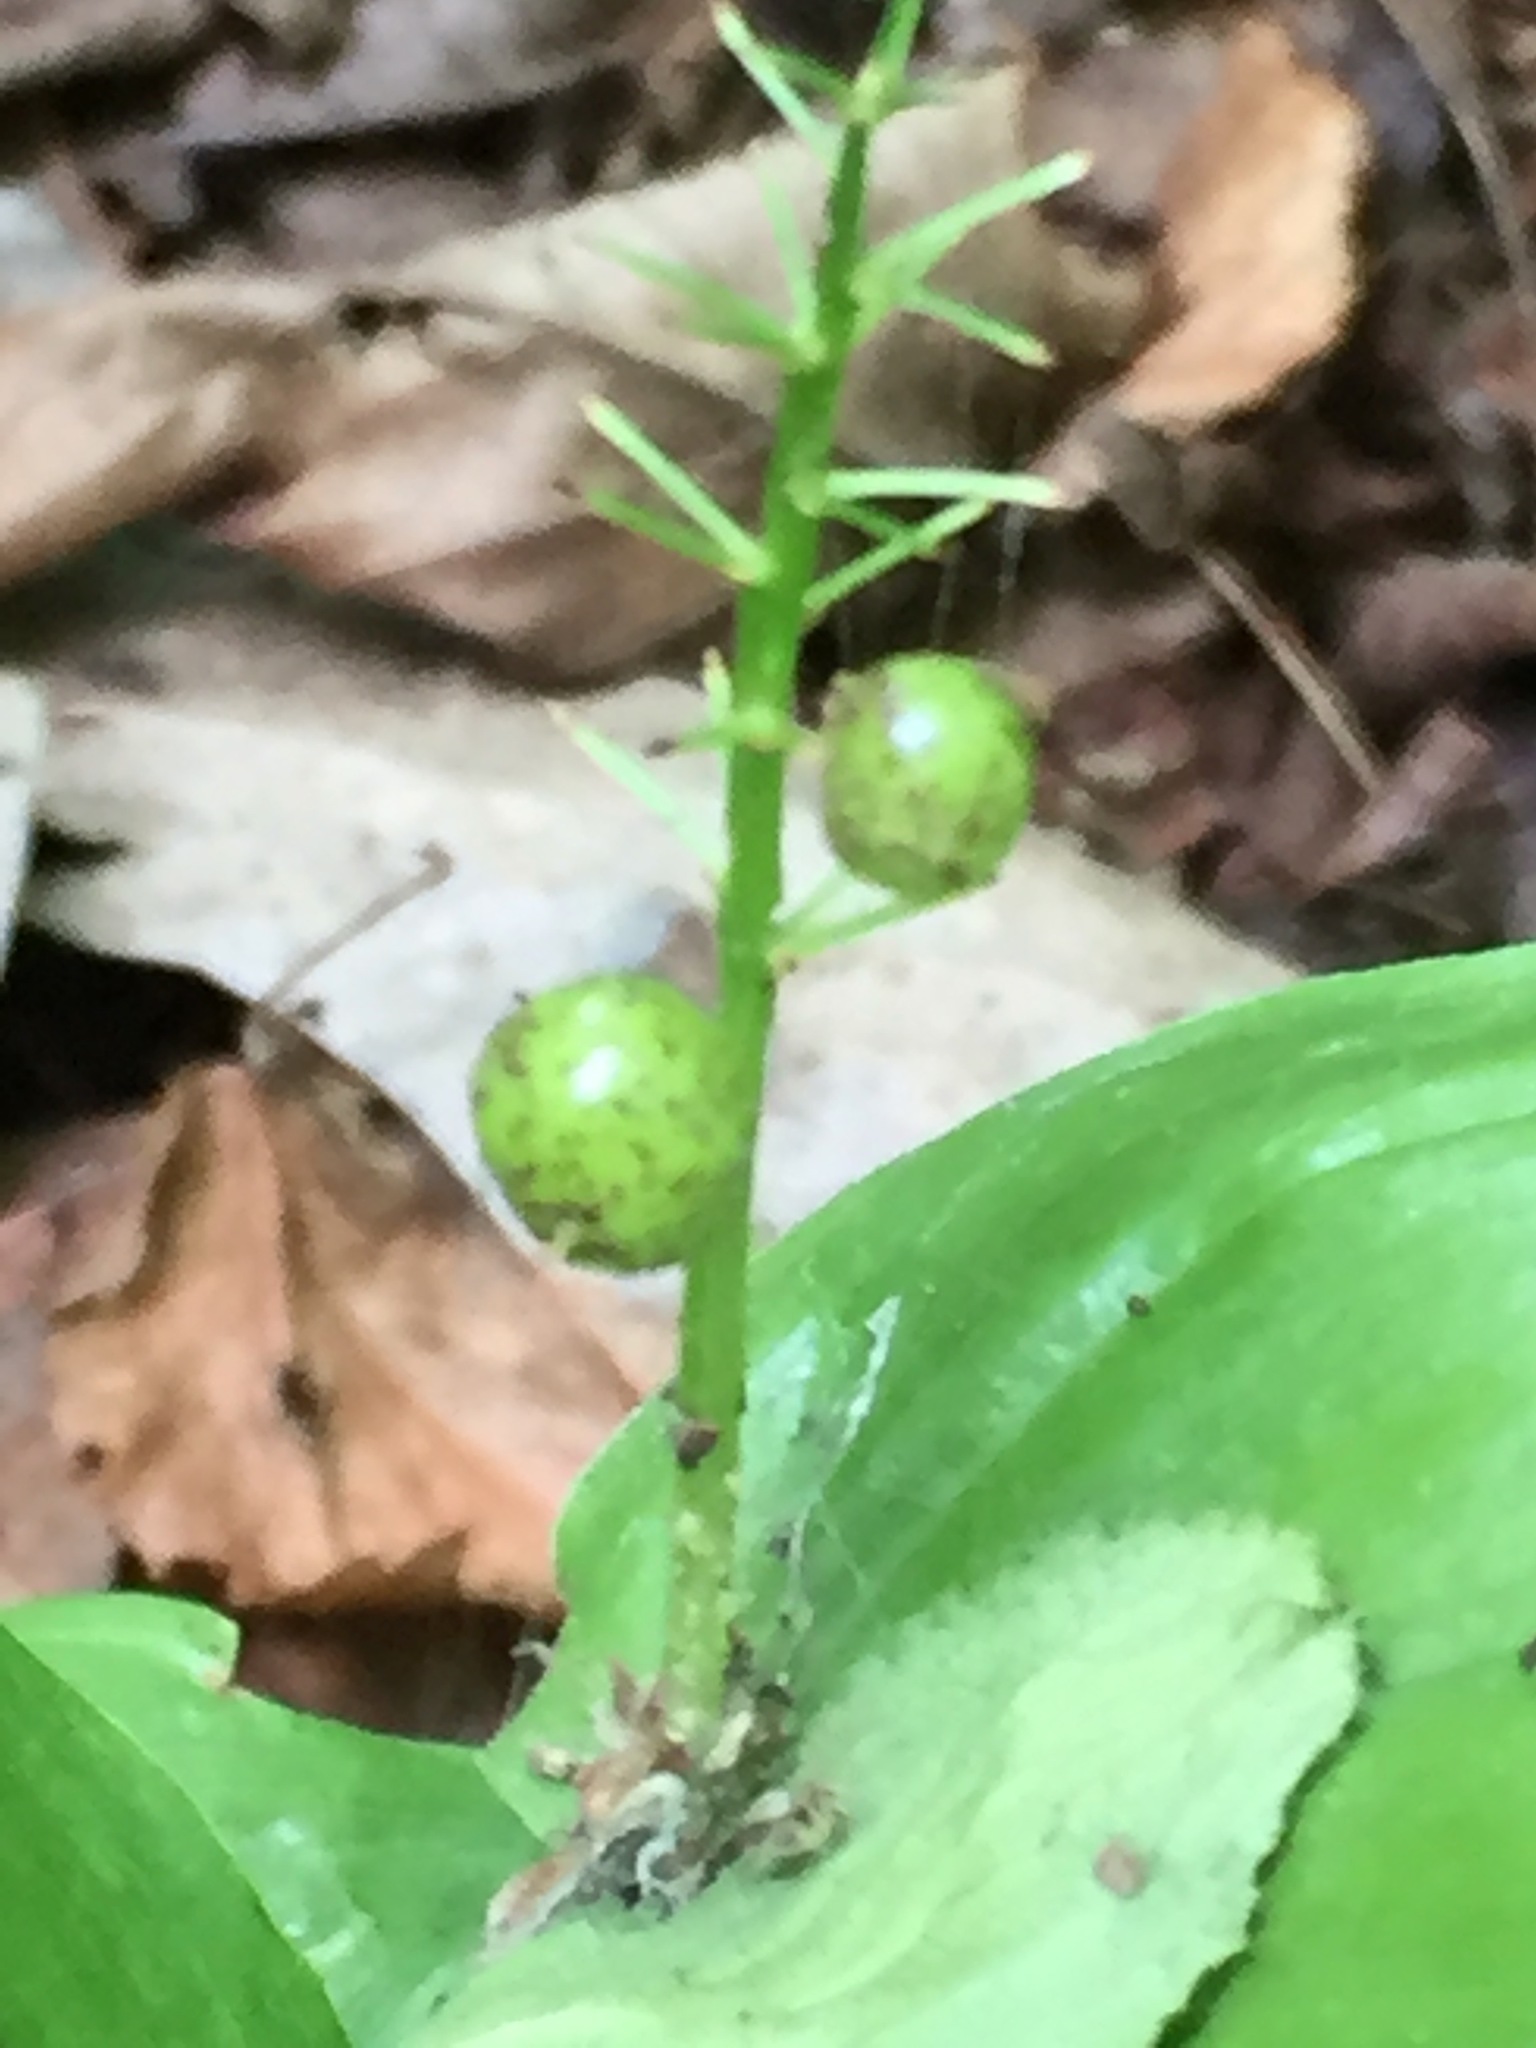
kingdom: Plantae
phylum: Tracheophyta
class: Liliopsida
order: Asparagales
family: Asparagaceae
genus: Maianthemum
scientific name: Maianthemum canadense
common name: False lily-of-the-valley
